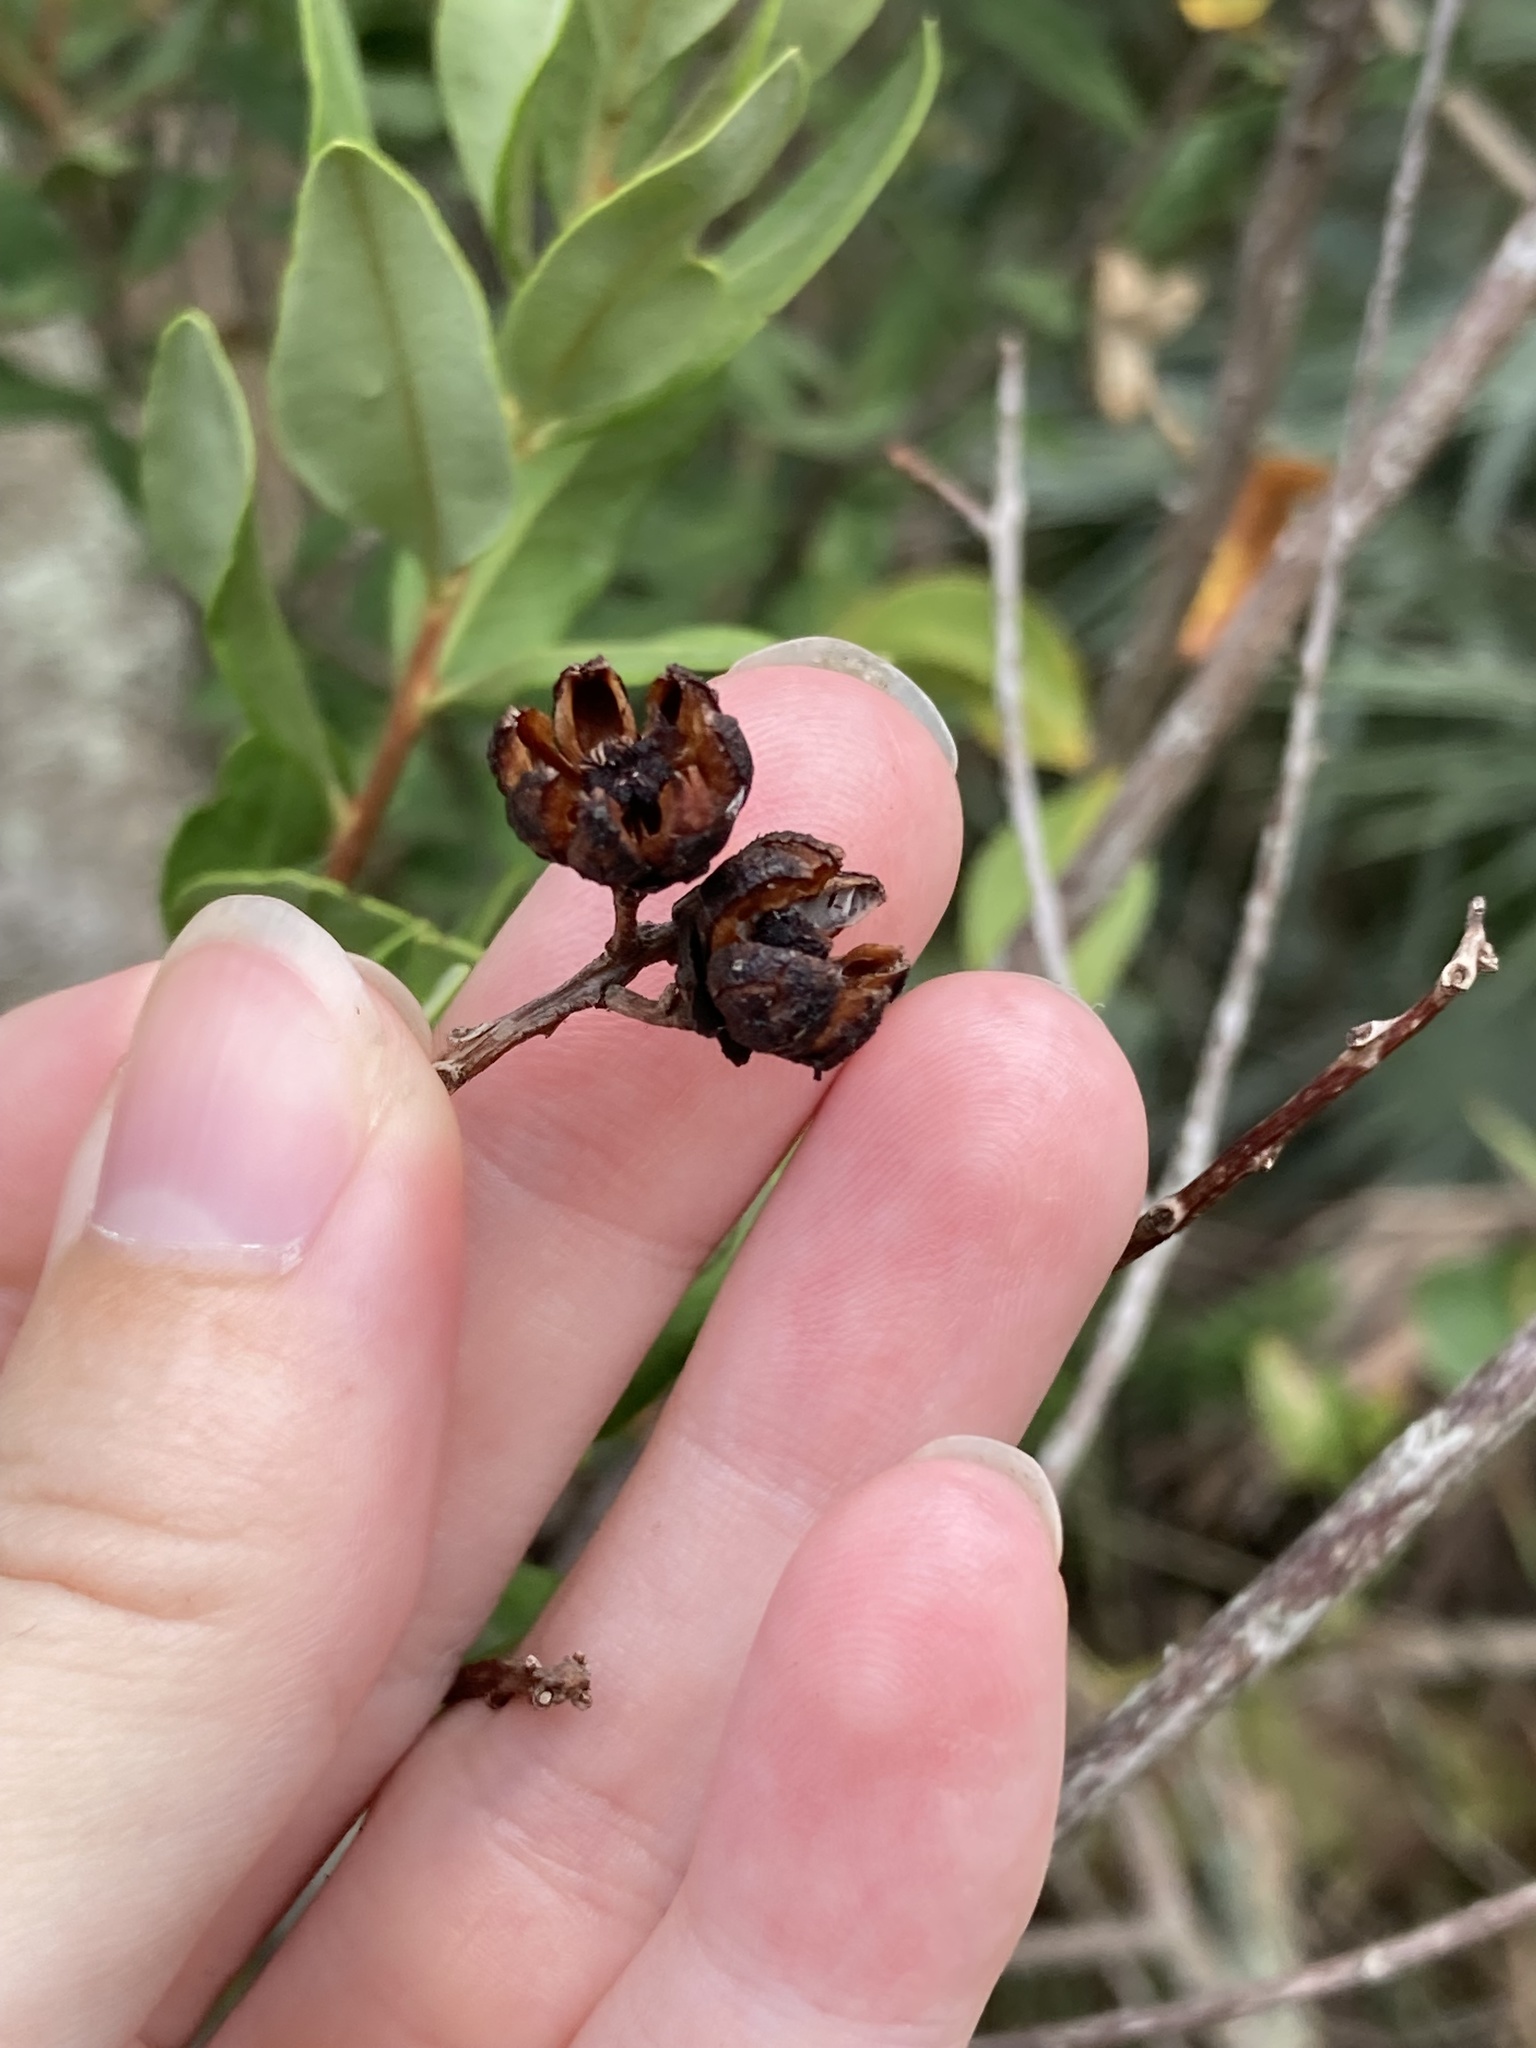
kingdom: Plantae
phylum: Tracheophyta
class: Magnoliopsida
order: Ericales
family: Ericaceae
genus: Bejaria
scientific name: Bejaria racemosa
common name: Tarflower
